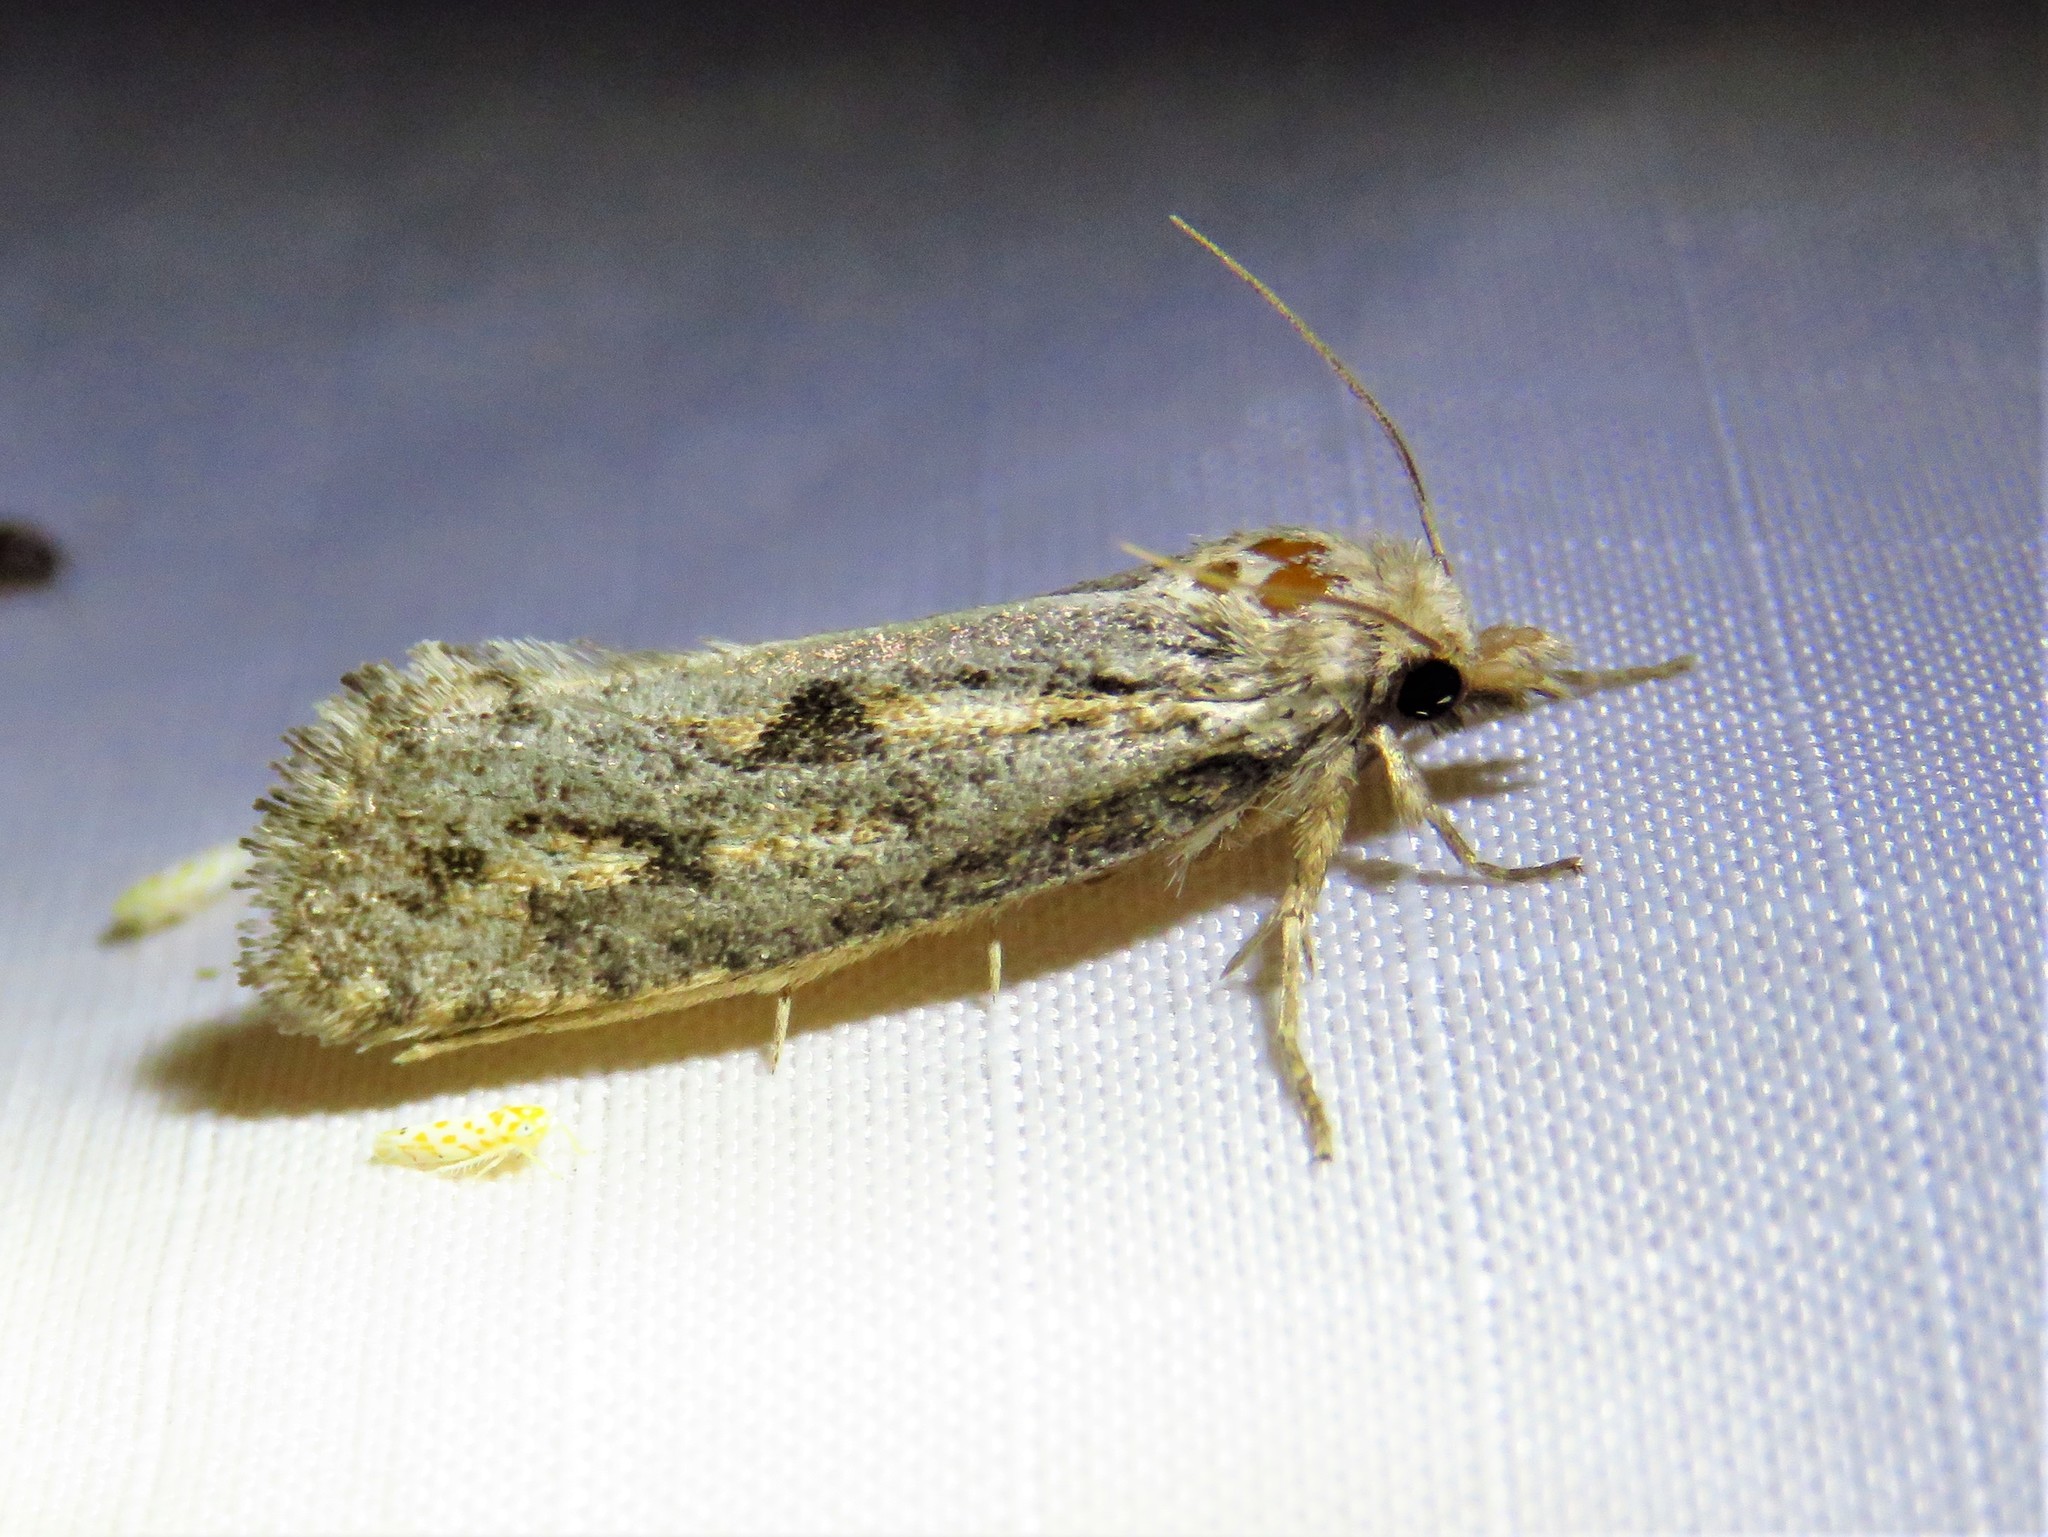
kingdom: Animalia
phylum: Arthropoda
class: Insecta
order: Lepidoptera
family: Tineidae
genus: Acrolophus
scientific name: Acrolophus popeanella
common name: Clemens' grass tubeworm moth
